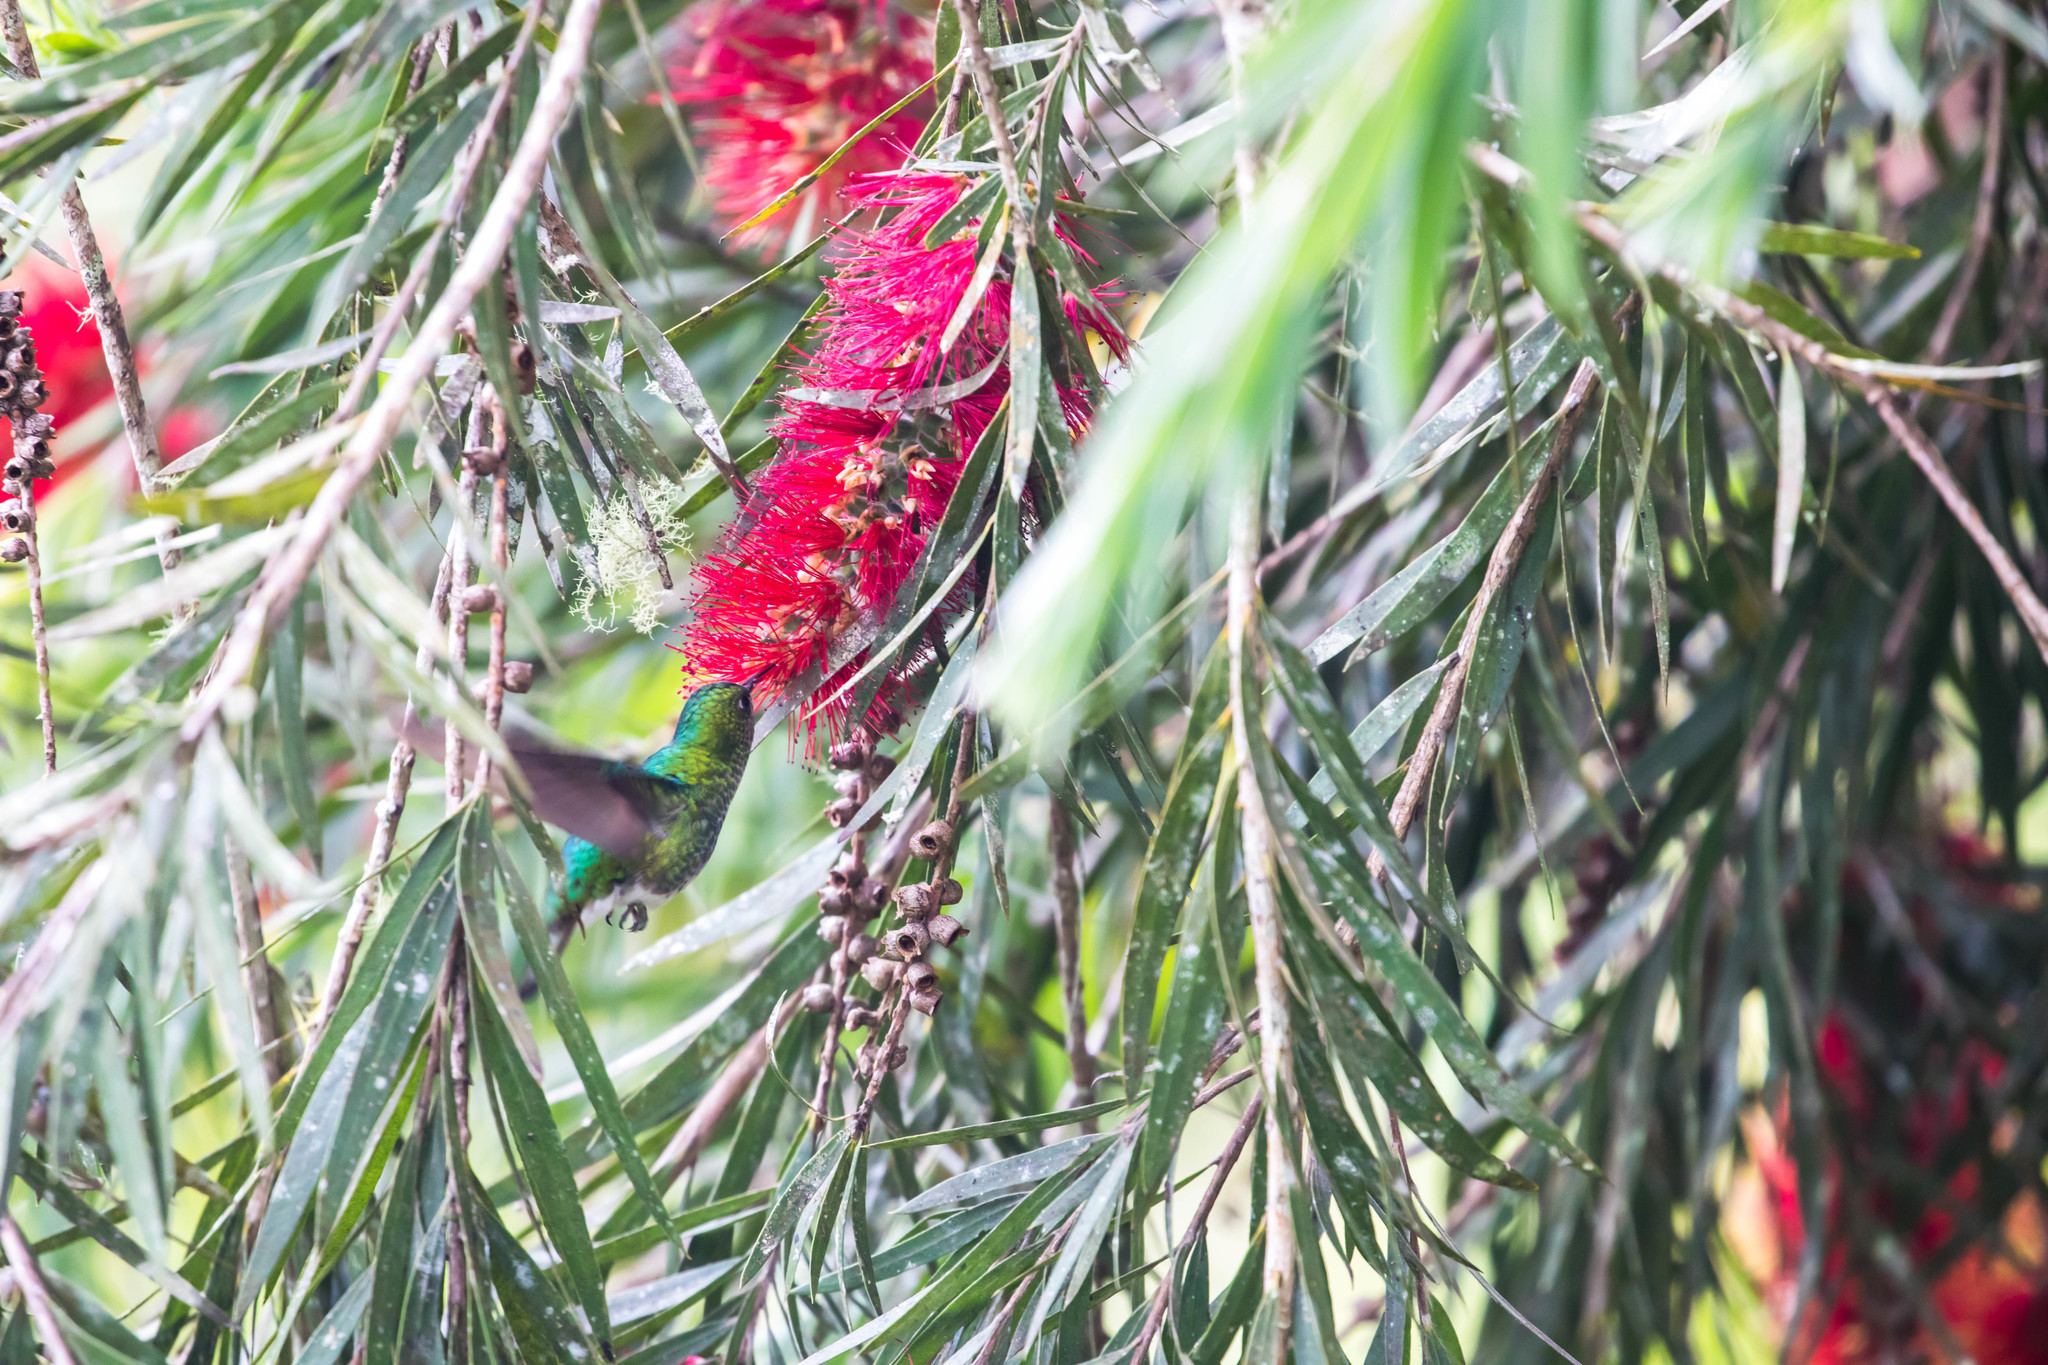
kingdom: Animalia
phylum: Chordata
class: Aves
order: Apodiformes
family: Trochilidae
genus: Microchera
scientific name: Microchera chionura
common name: White-tailed emerald
